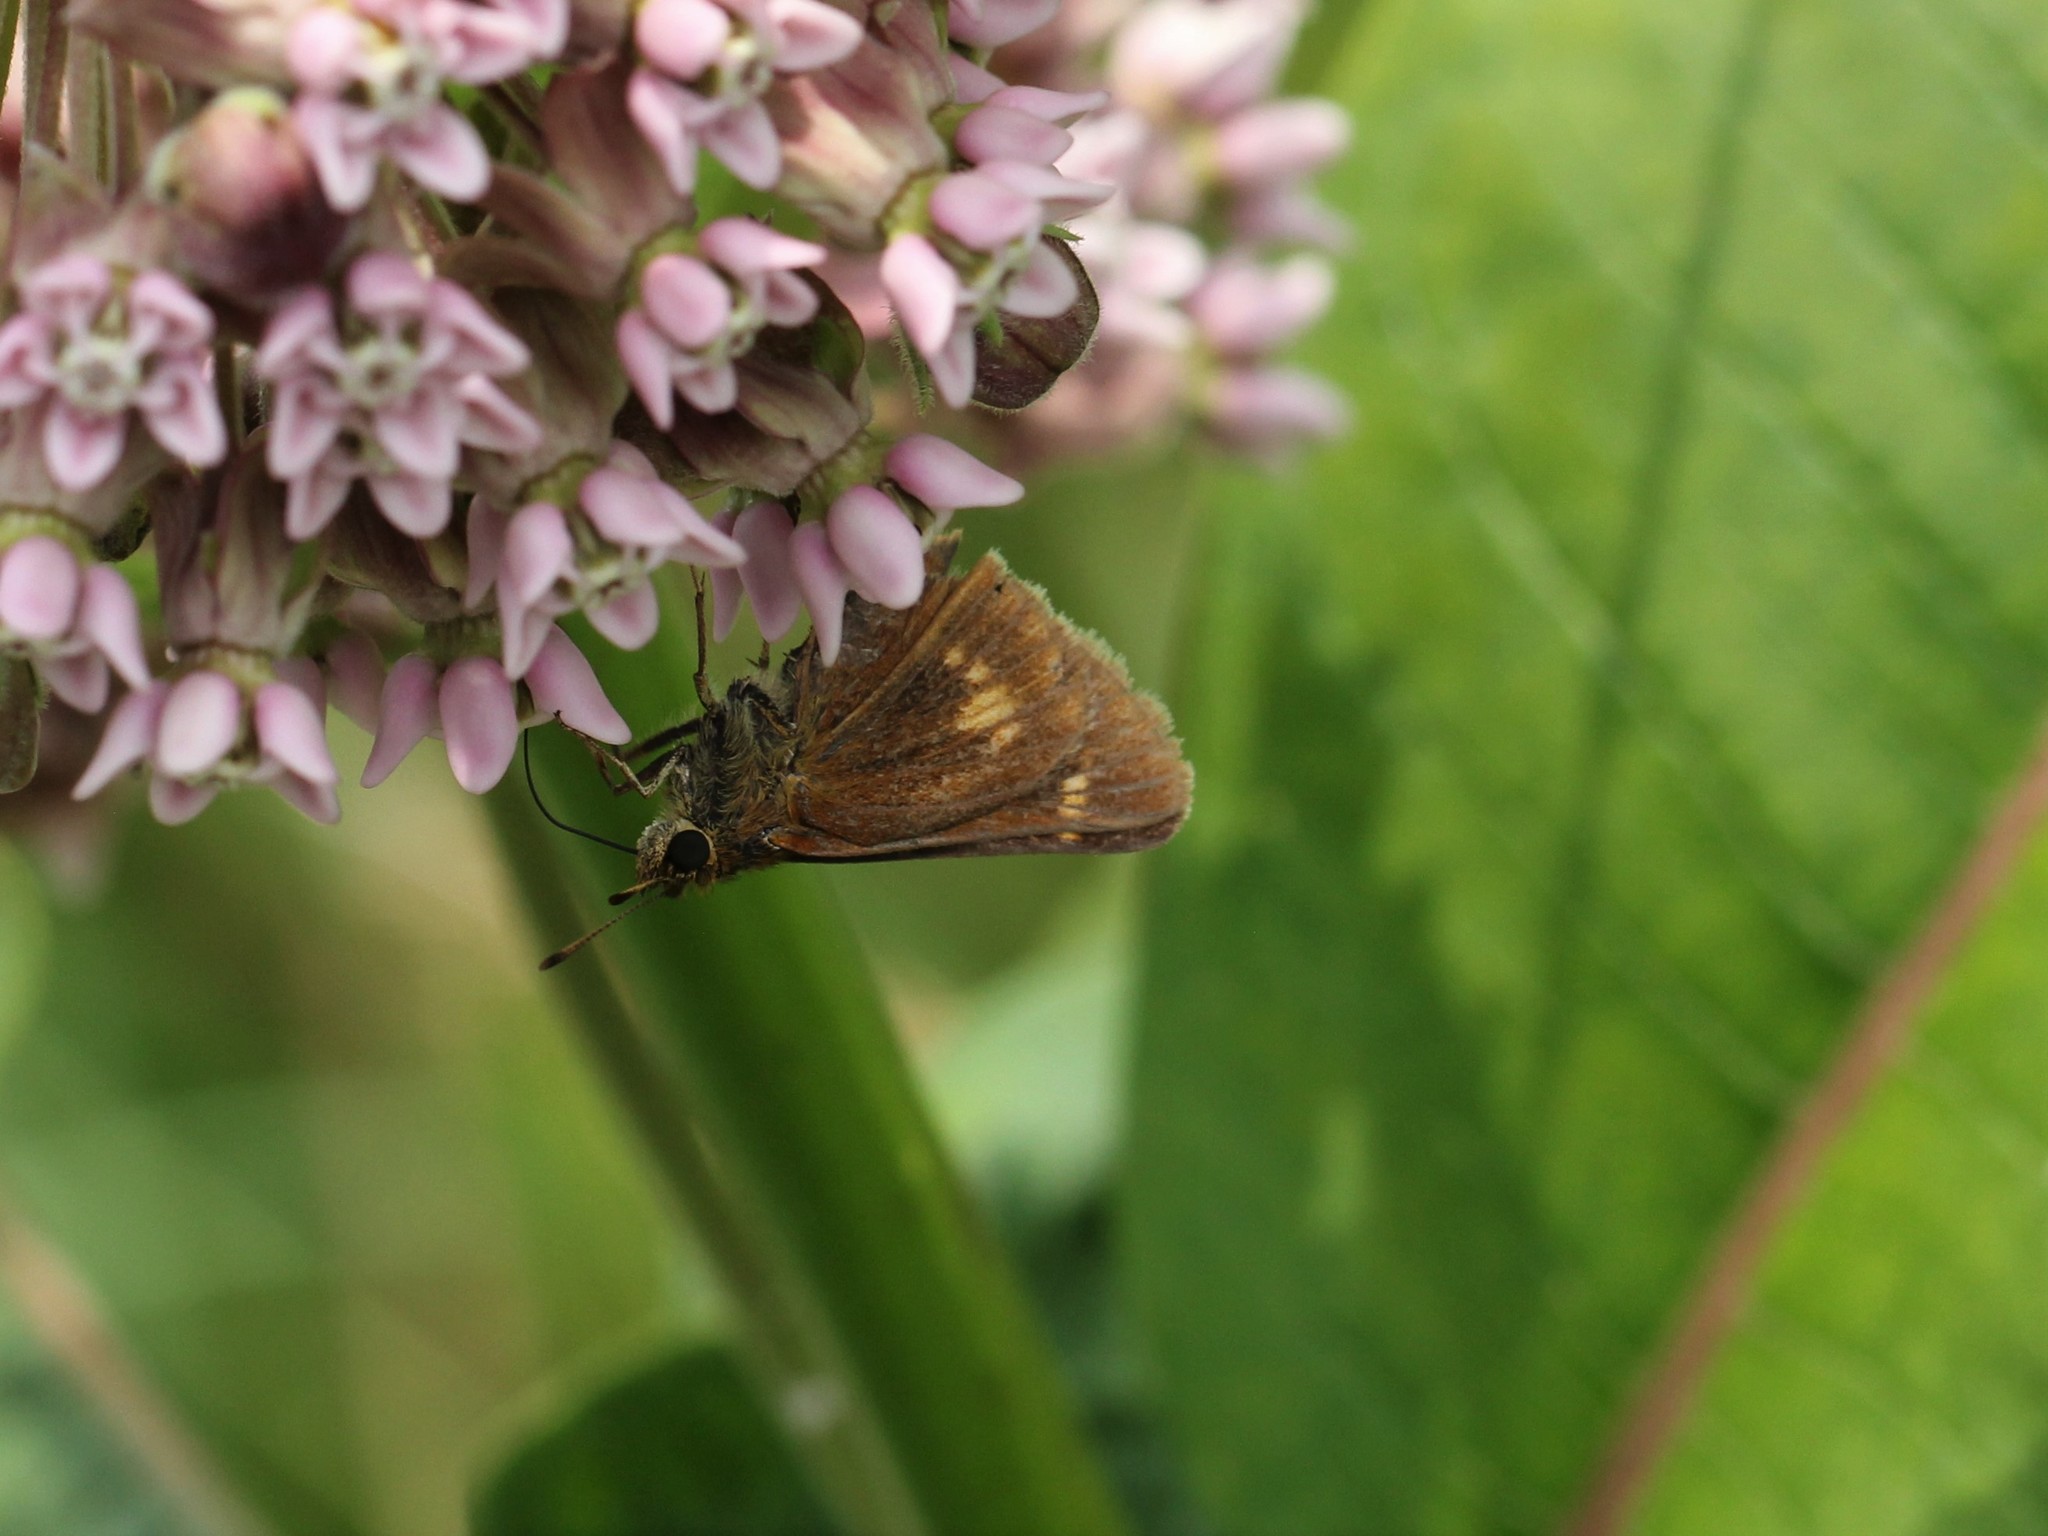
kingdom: Animalia
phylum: Arthropoda
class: Insecta
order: Lepidoptera
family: Hesperiidae
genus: Euphyes
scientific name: Euphyes conspicua
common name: Black dash
